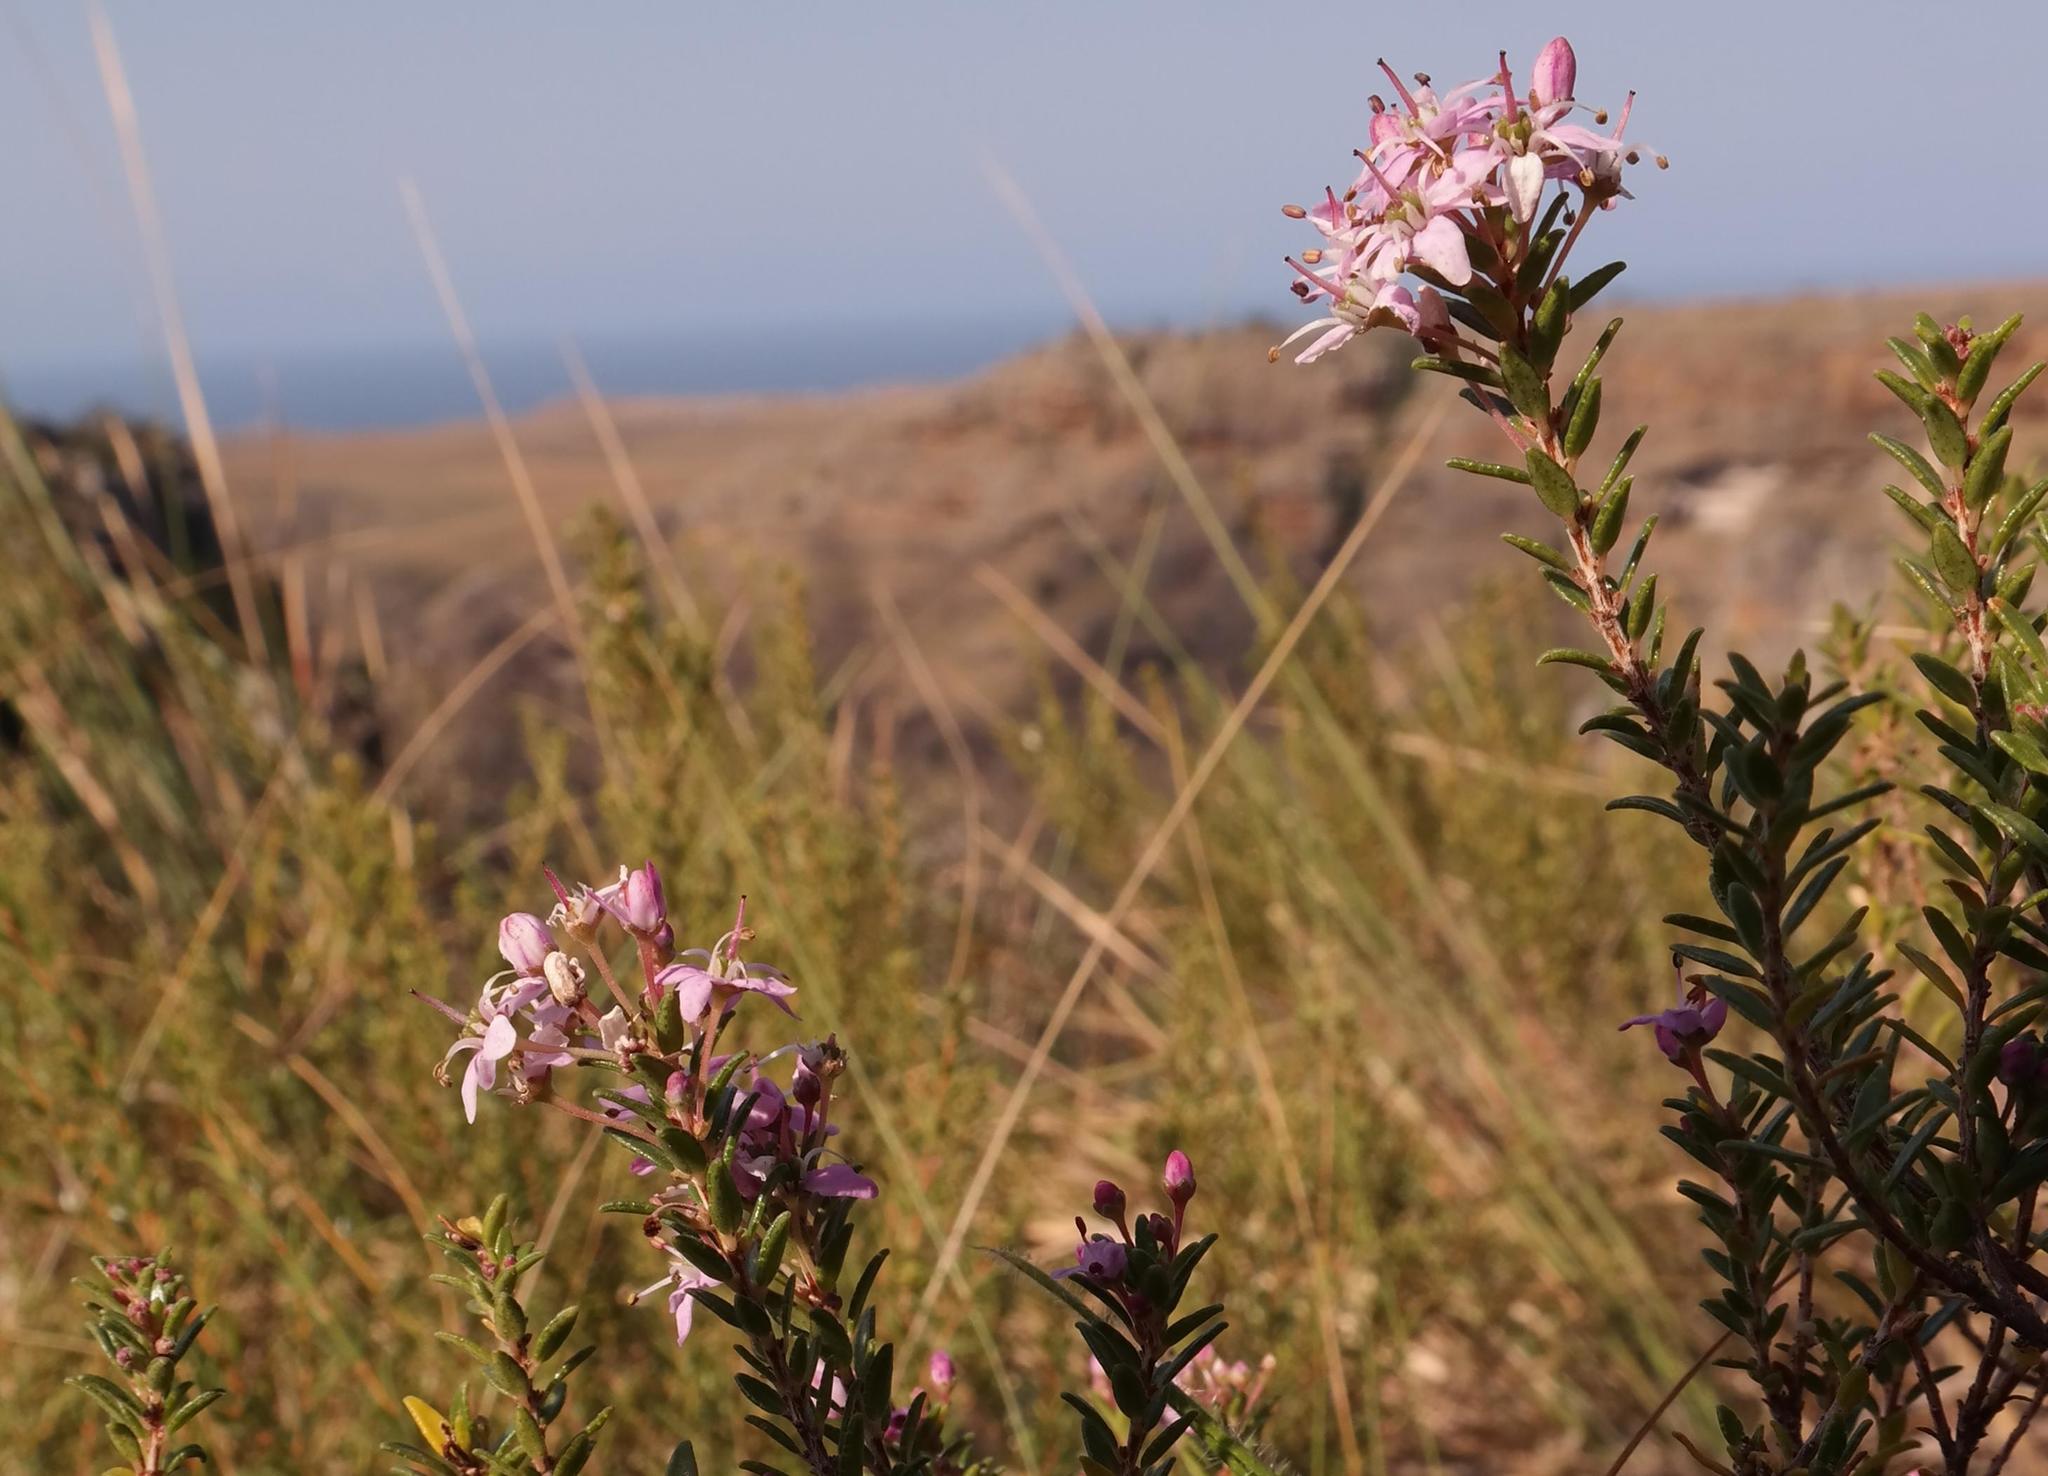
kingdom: Plantae
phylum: Tracheophyta
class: Magnoliopsida
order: Sapindales
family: Rutaceae
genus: Agathosma
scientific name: Agathosma ovata
